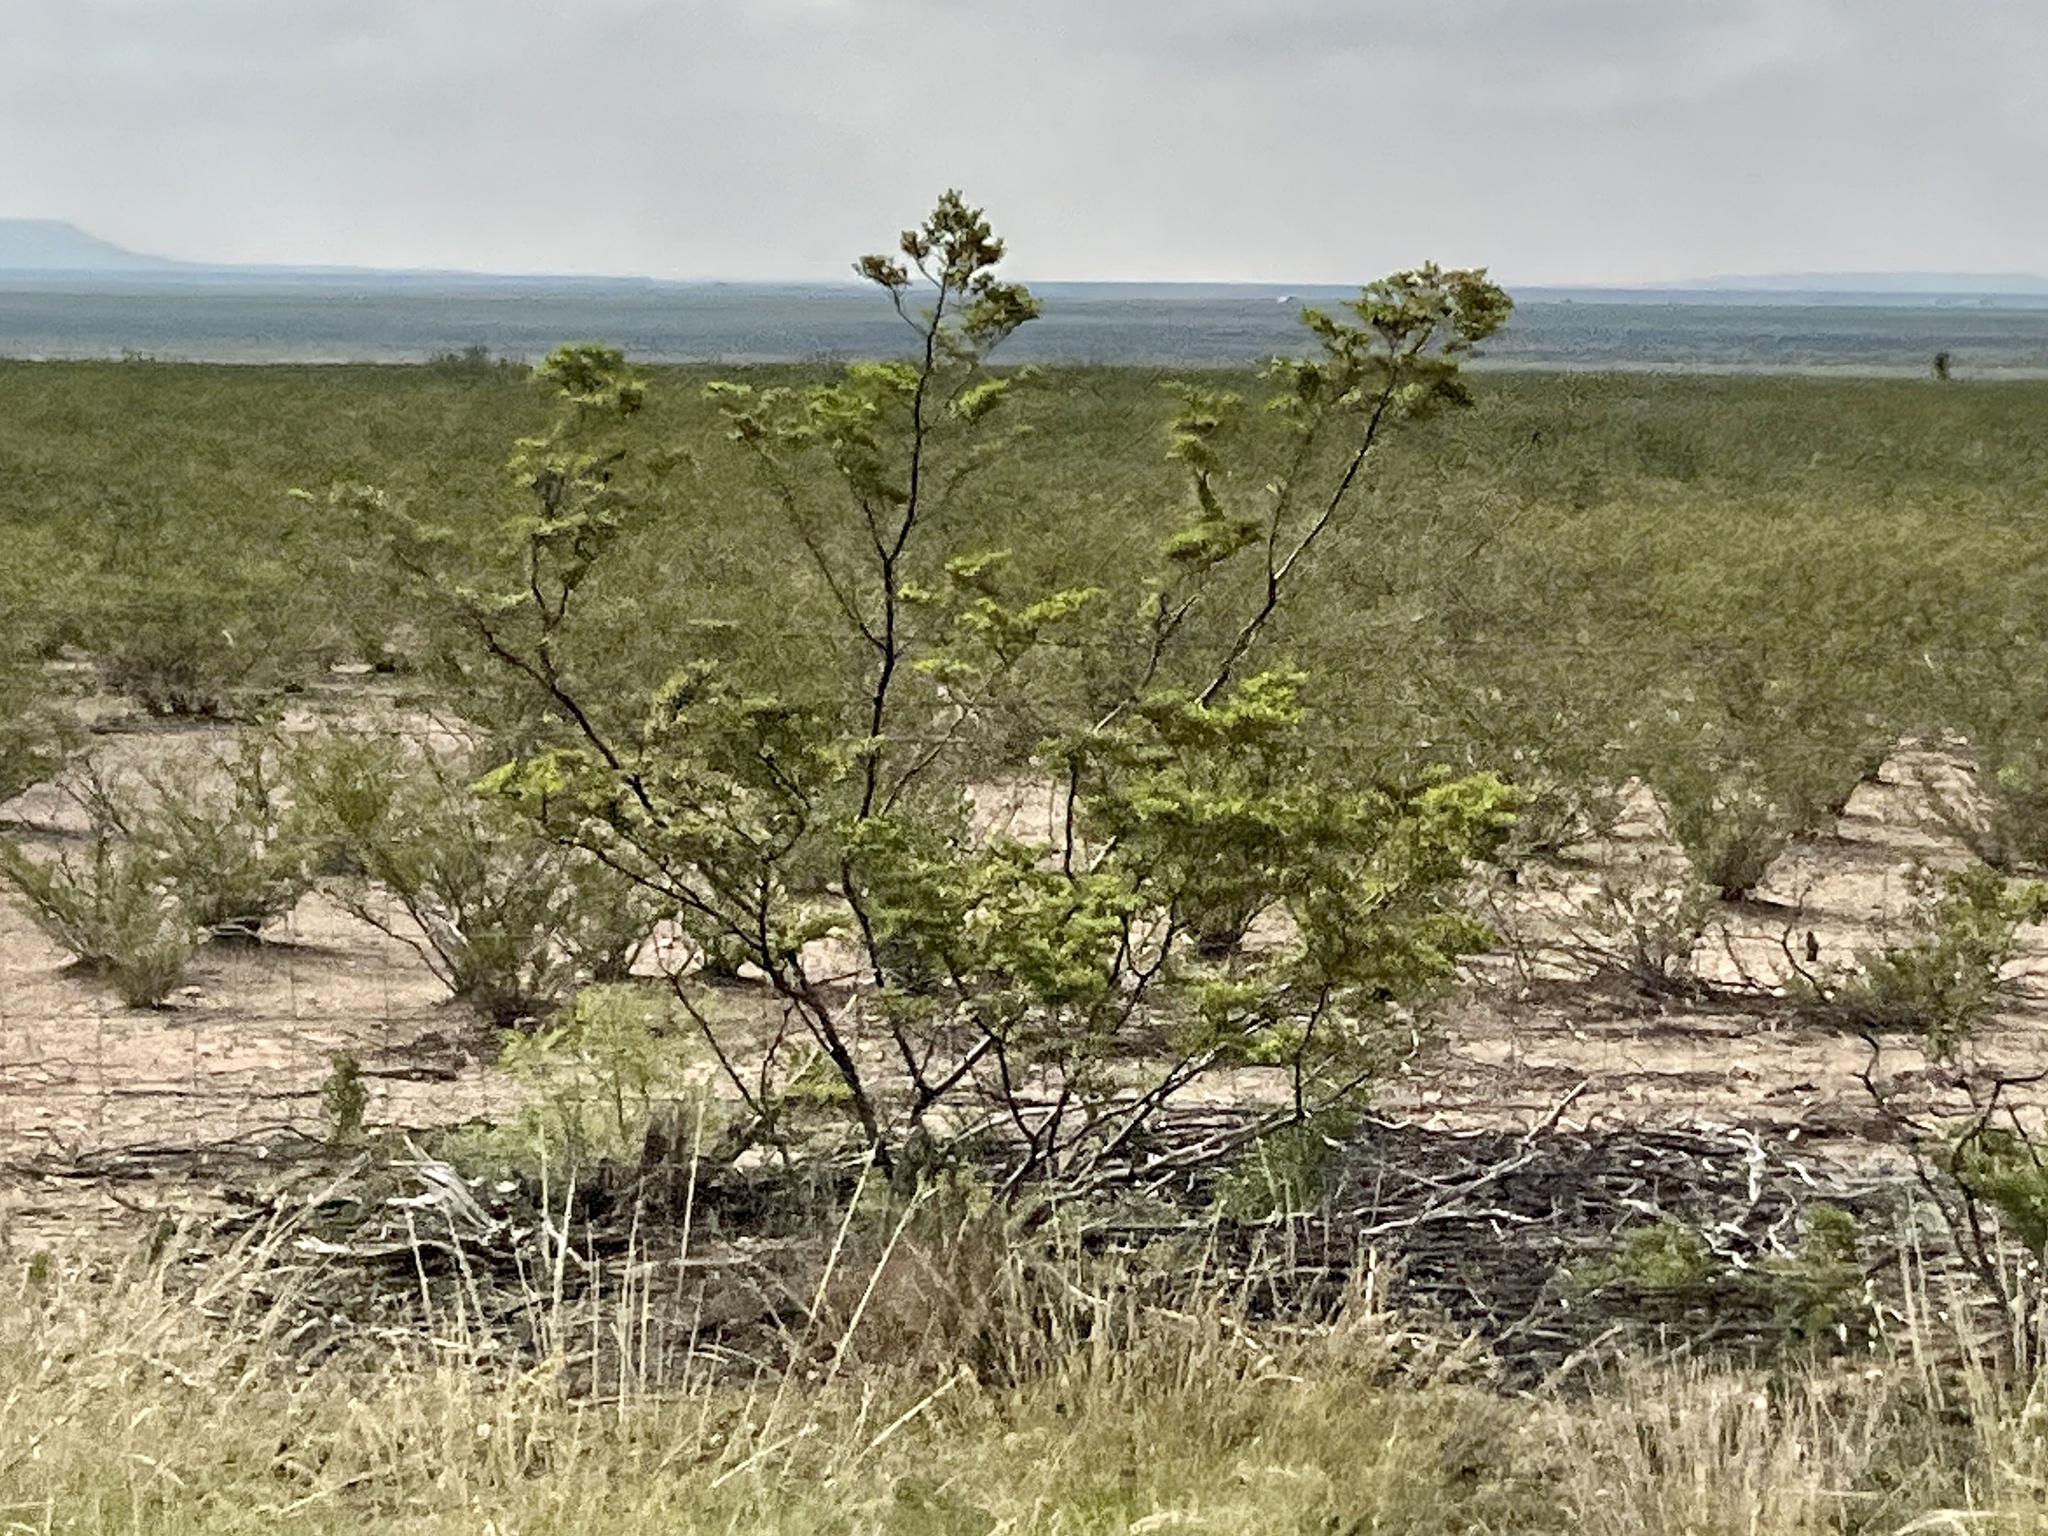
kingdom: Plantae
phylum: Tracheophyta
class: Magnoliopsida
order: Zygophyllales
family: Zygophyllaceae
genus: Larrea
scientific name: Larrea tridentata
